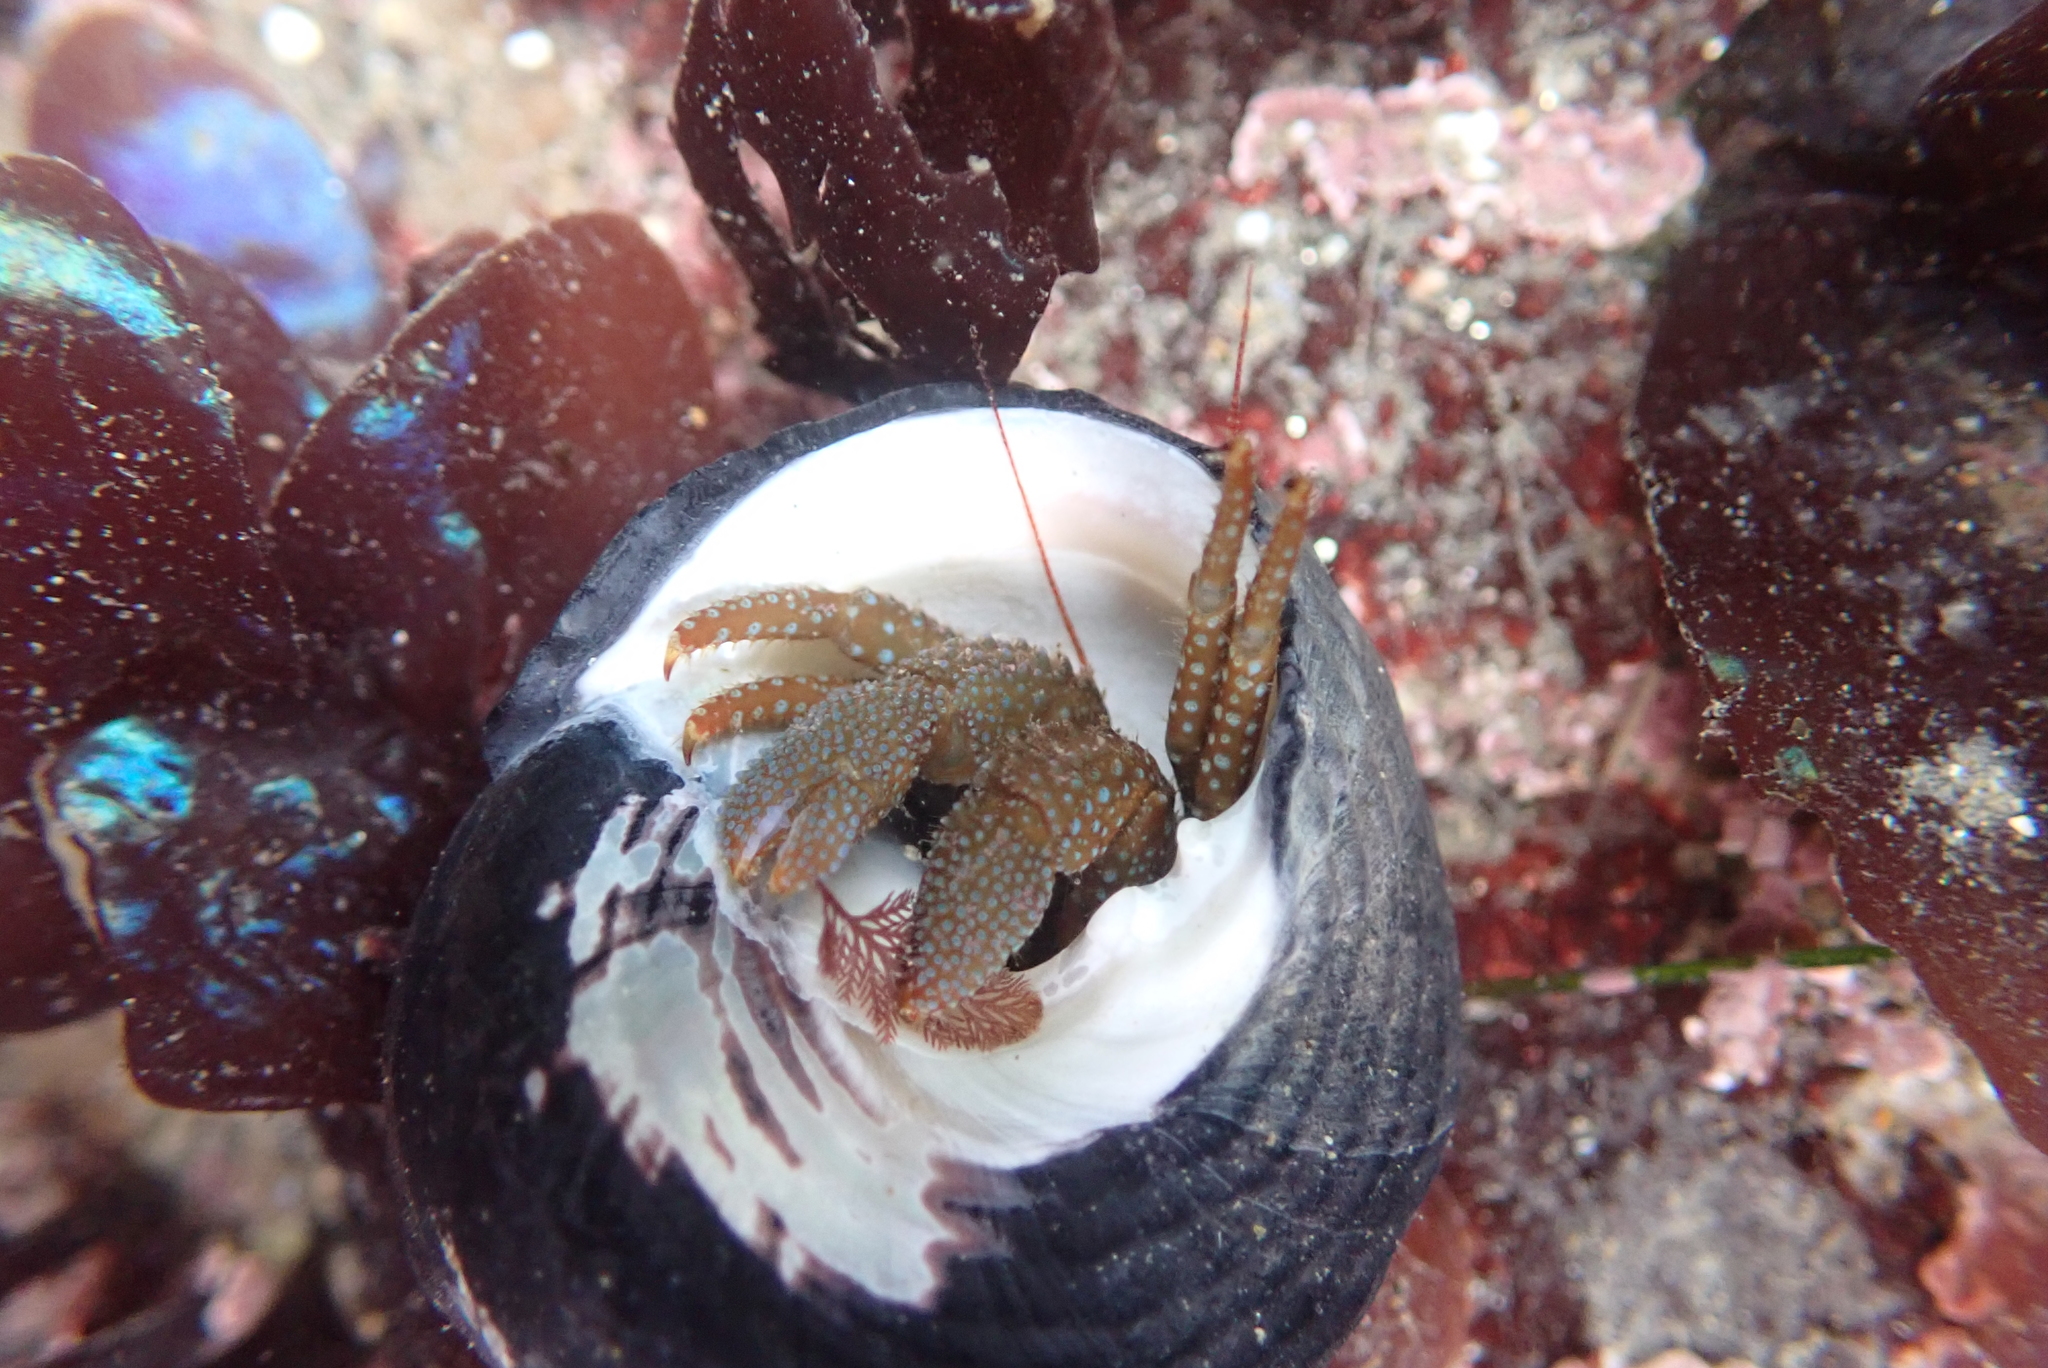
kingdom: Animalia
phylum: Arthropoda
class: Malacostraca
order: Decapoda
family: Paguridae
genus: Pagurus
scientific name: Pagurus granosimanus
